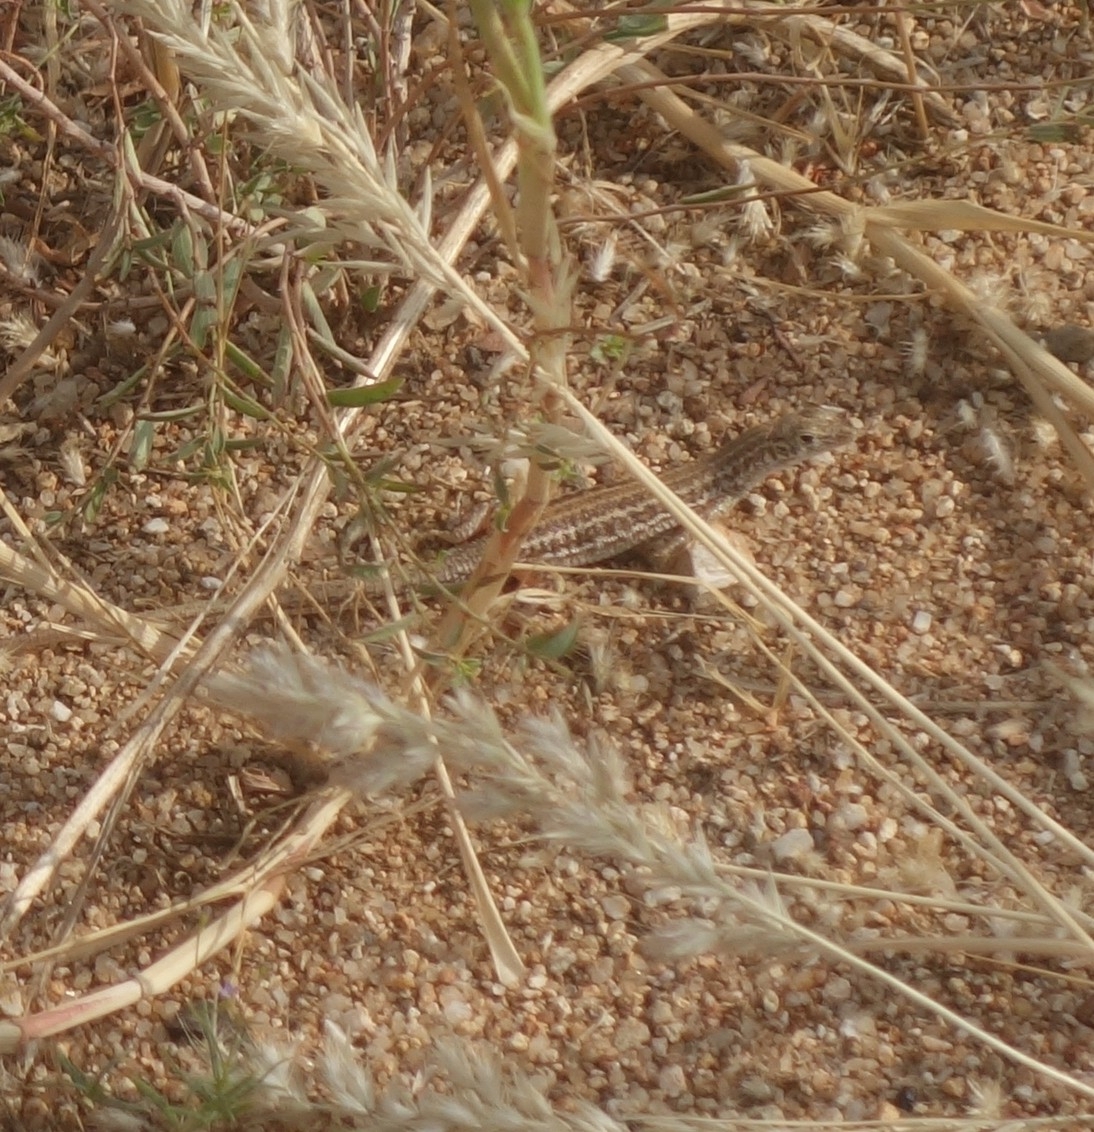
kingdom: Animalia
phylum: Chordata
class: Squamata
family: Lacertidae
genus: Pedioplanis
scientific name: Pedioplanis namaquensis
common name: Namaqua sand lizard
